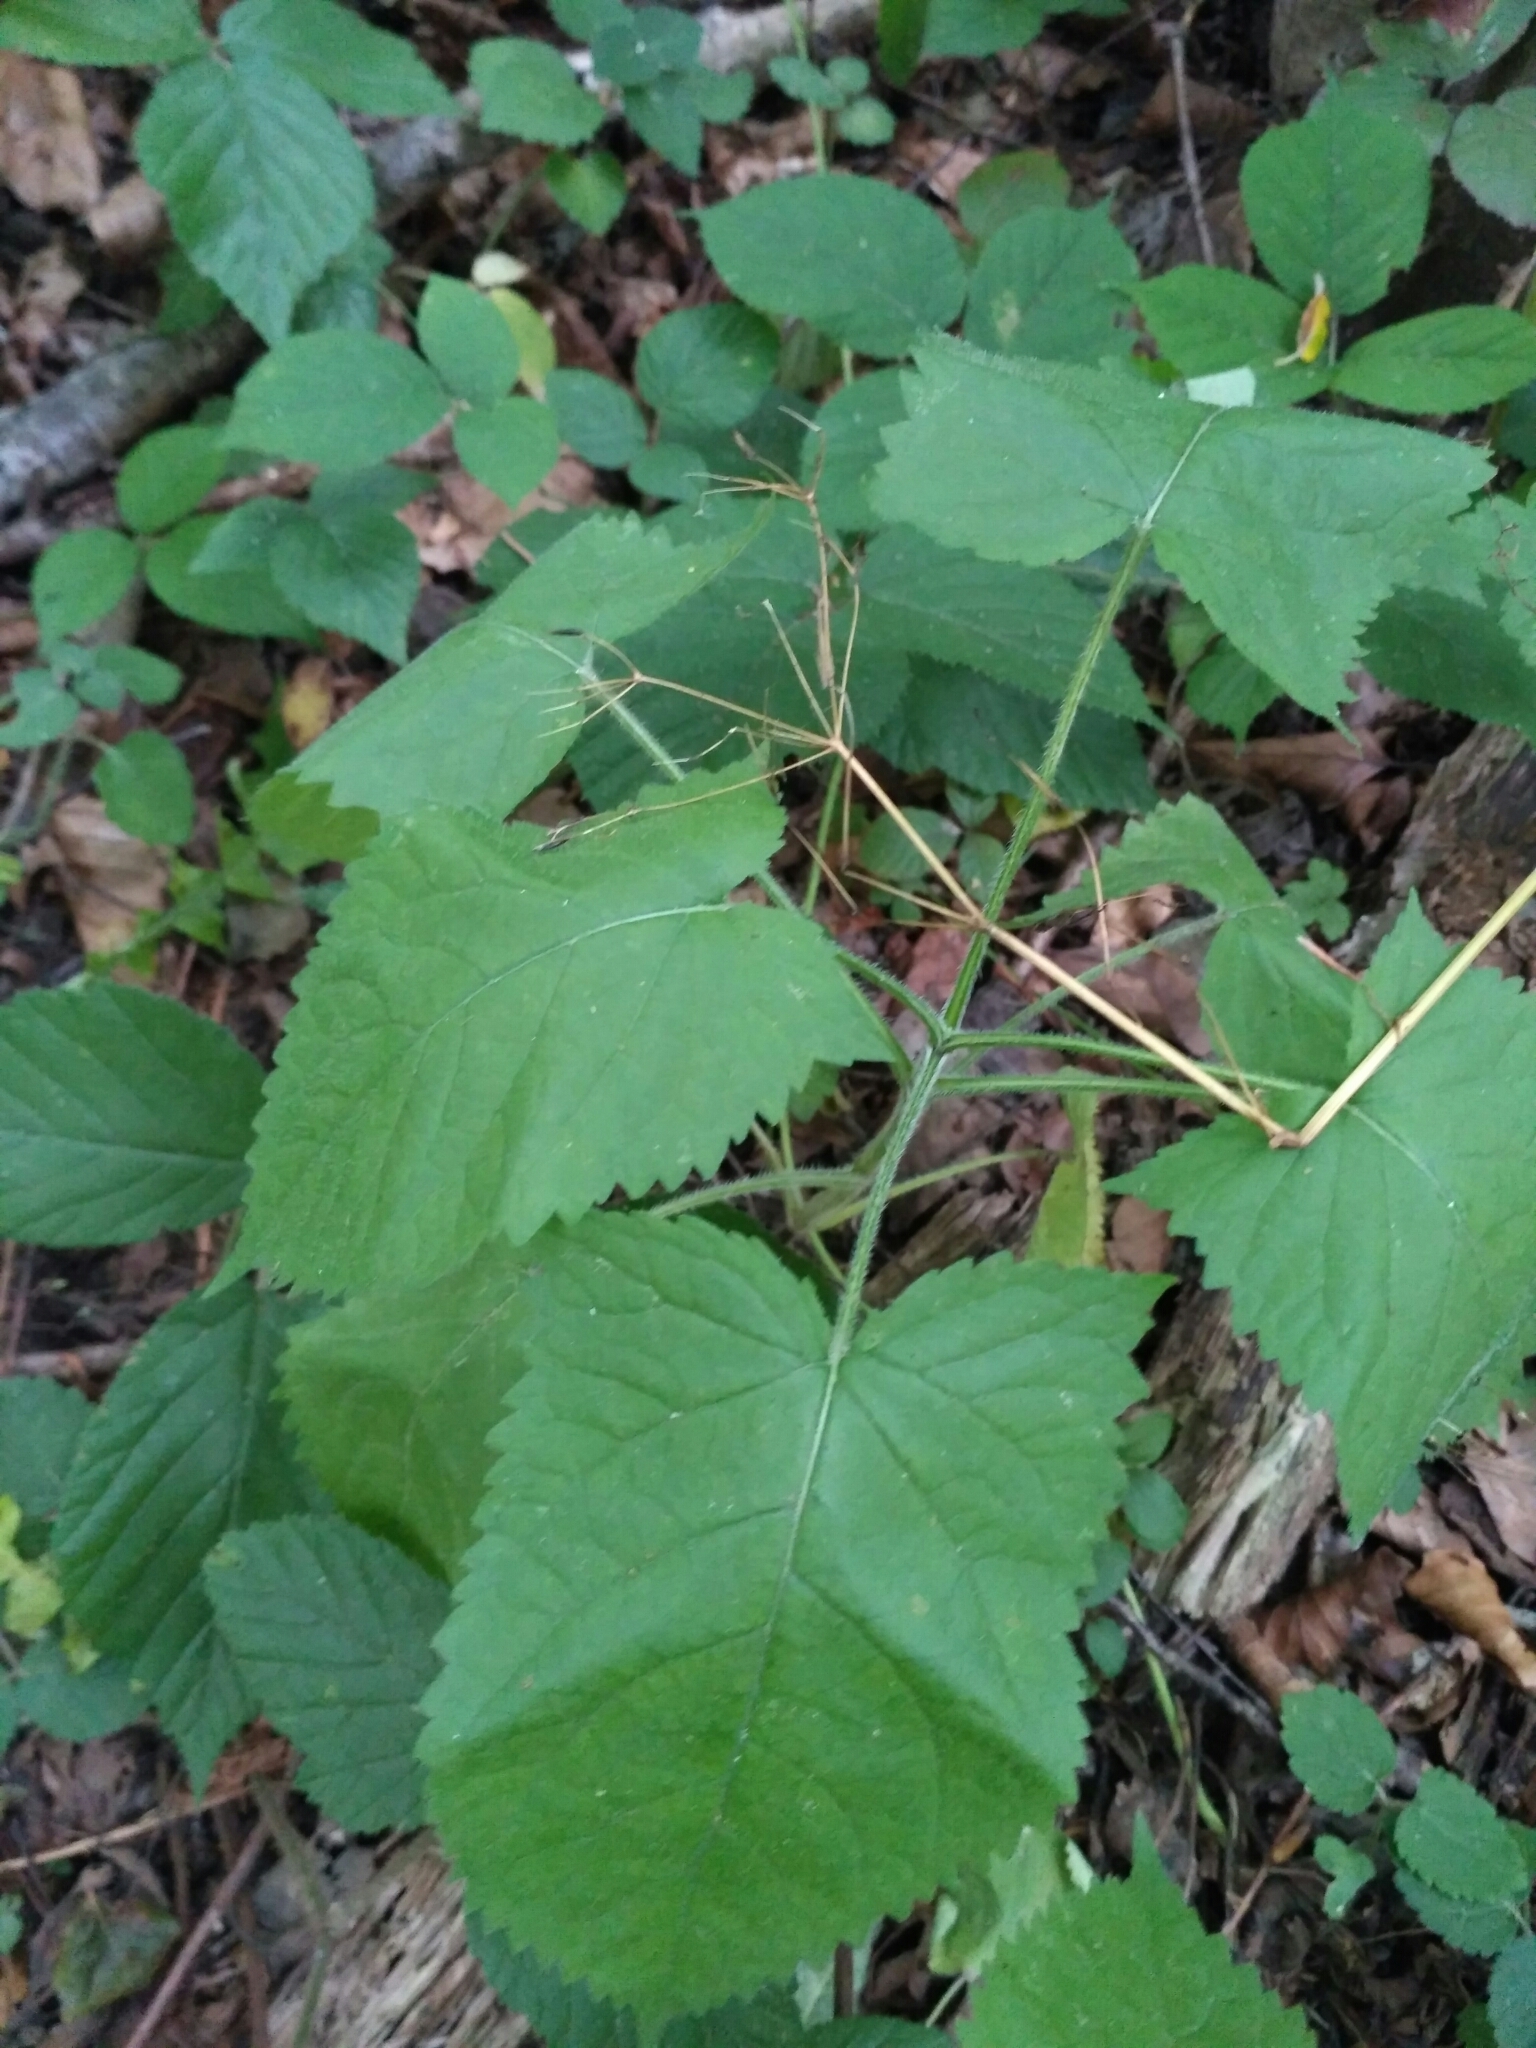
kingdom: Plantae
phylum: Tracheophyta
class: Magnoliopsida
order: Lamiales
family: Lamiaceae
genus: Salvia
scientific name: Salvia glutinosa
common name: Sticky clary
